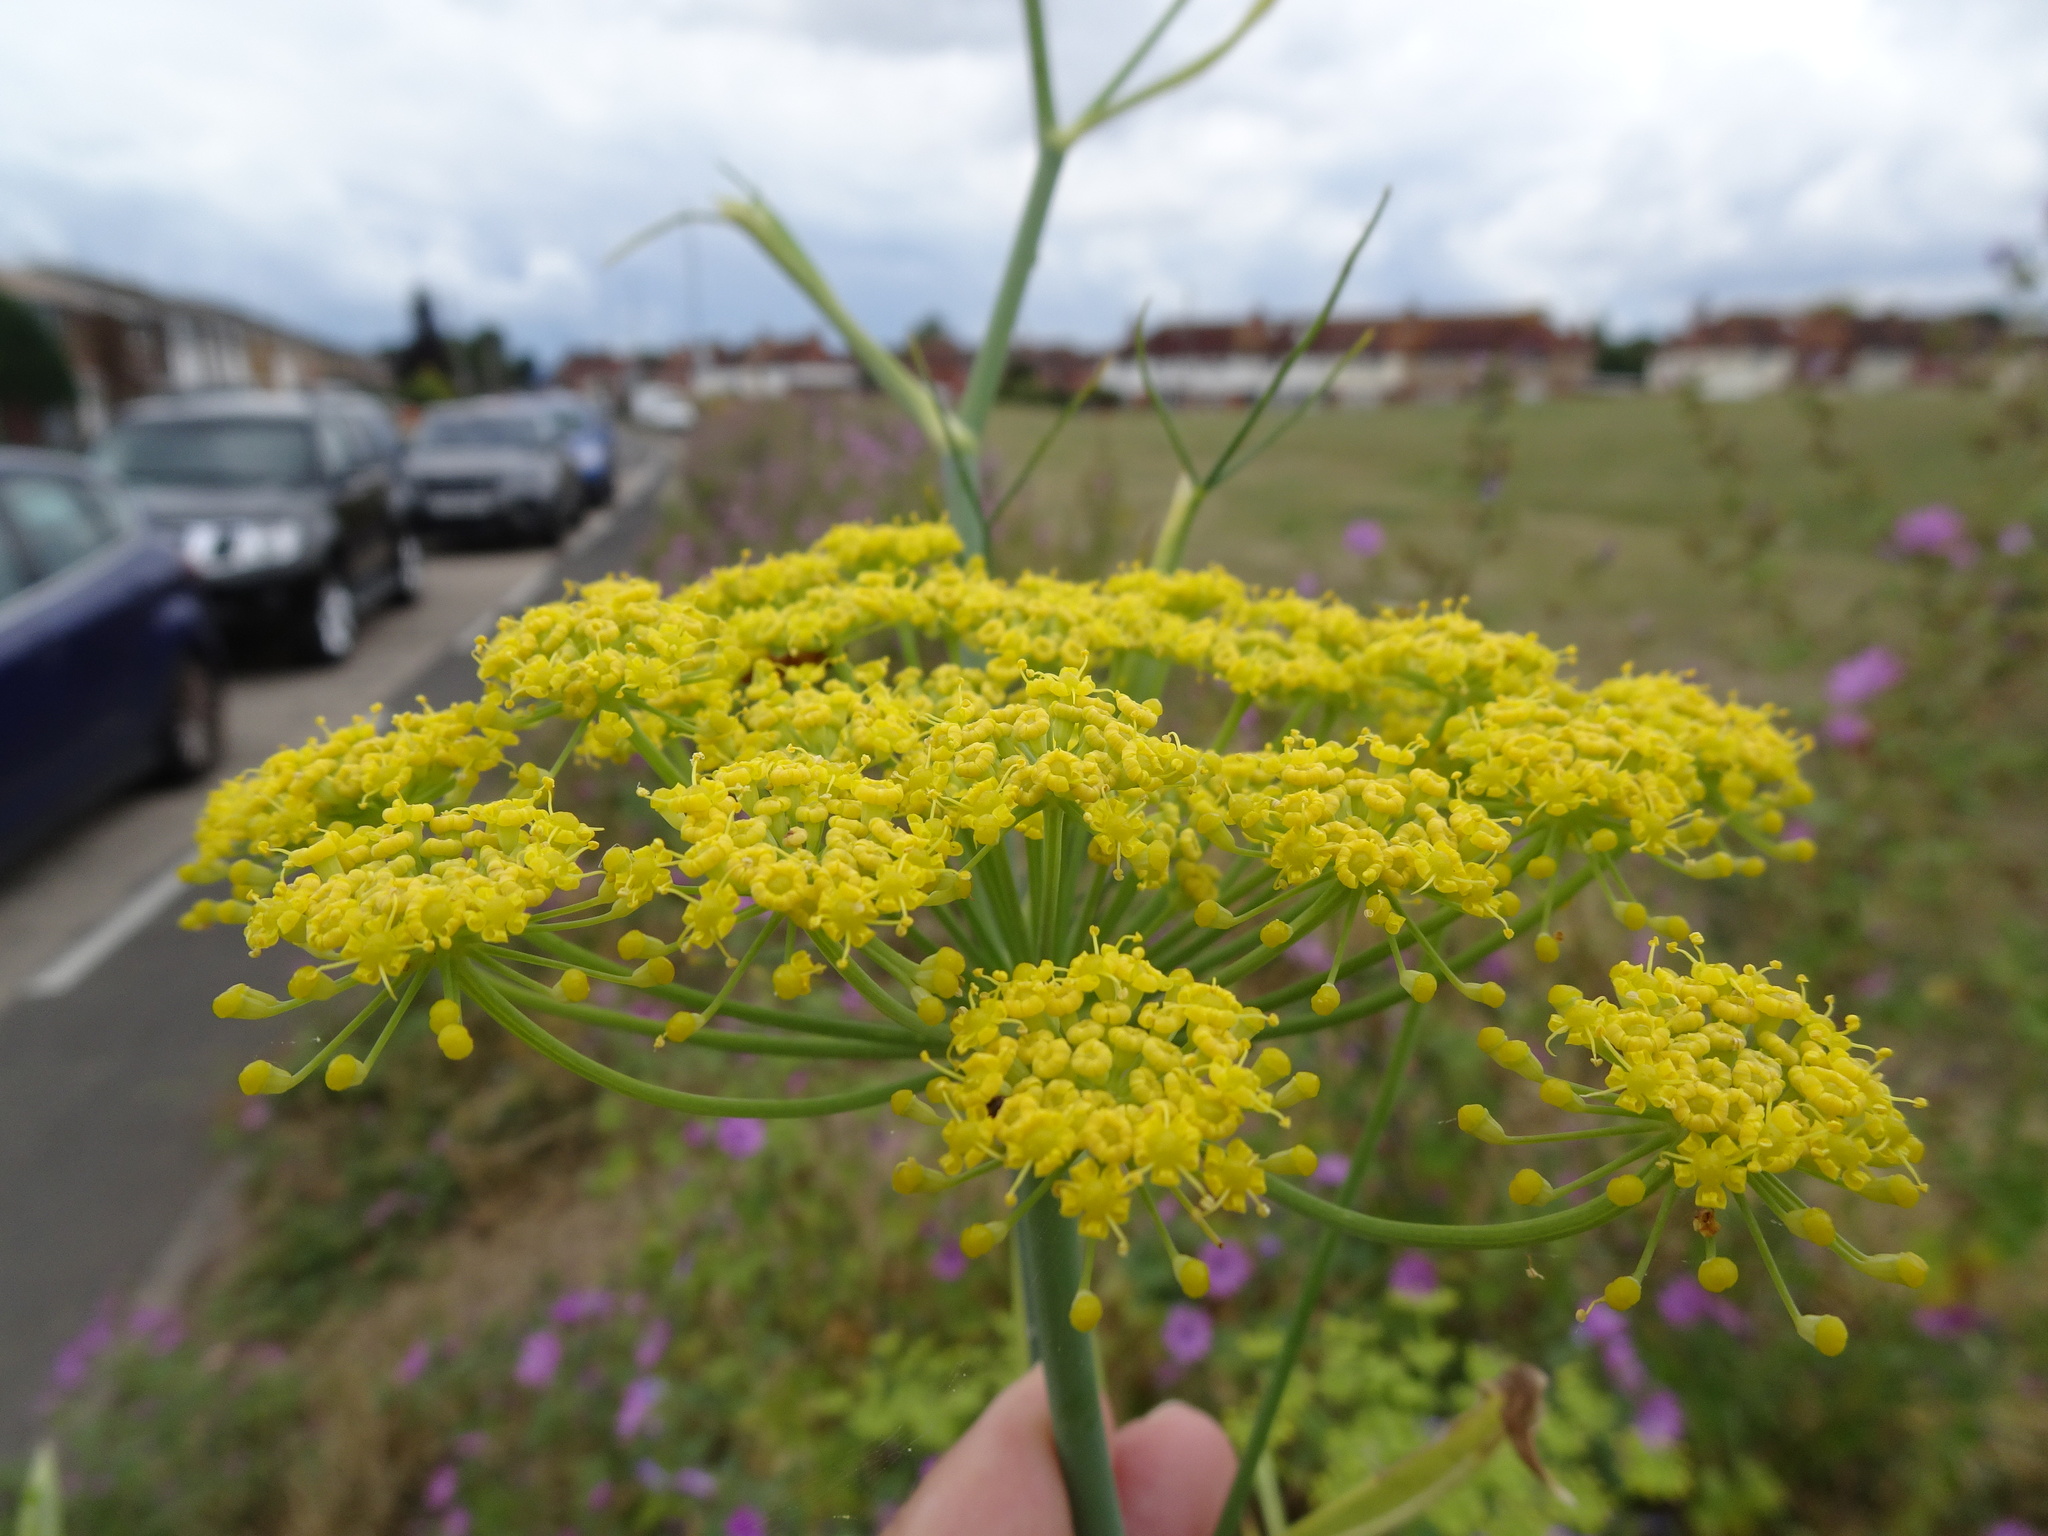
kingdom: Plantae
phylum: Tracheophyta
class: Magnoliopsida
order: Apiales
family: Apiaceae
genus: Foeniculum
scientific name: Foeniculum vulgare
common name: Fennel
